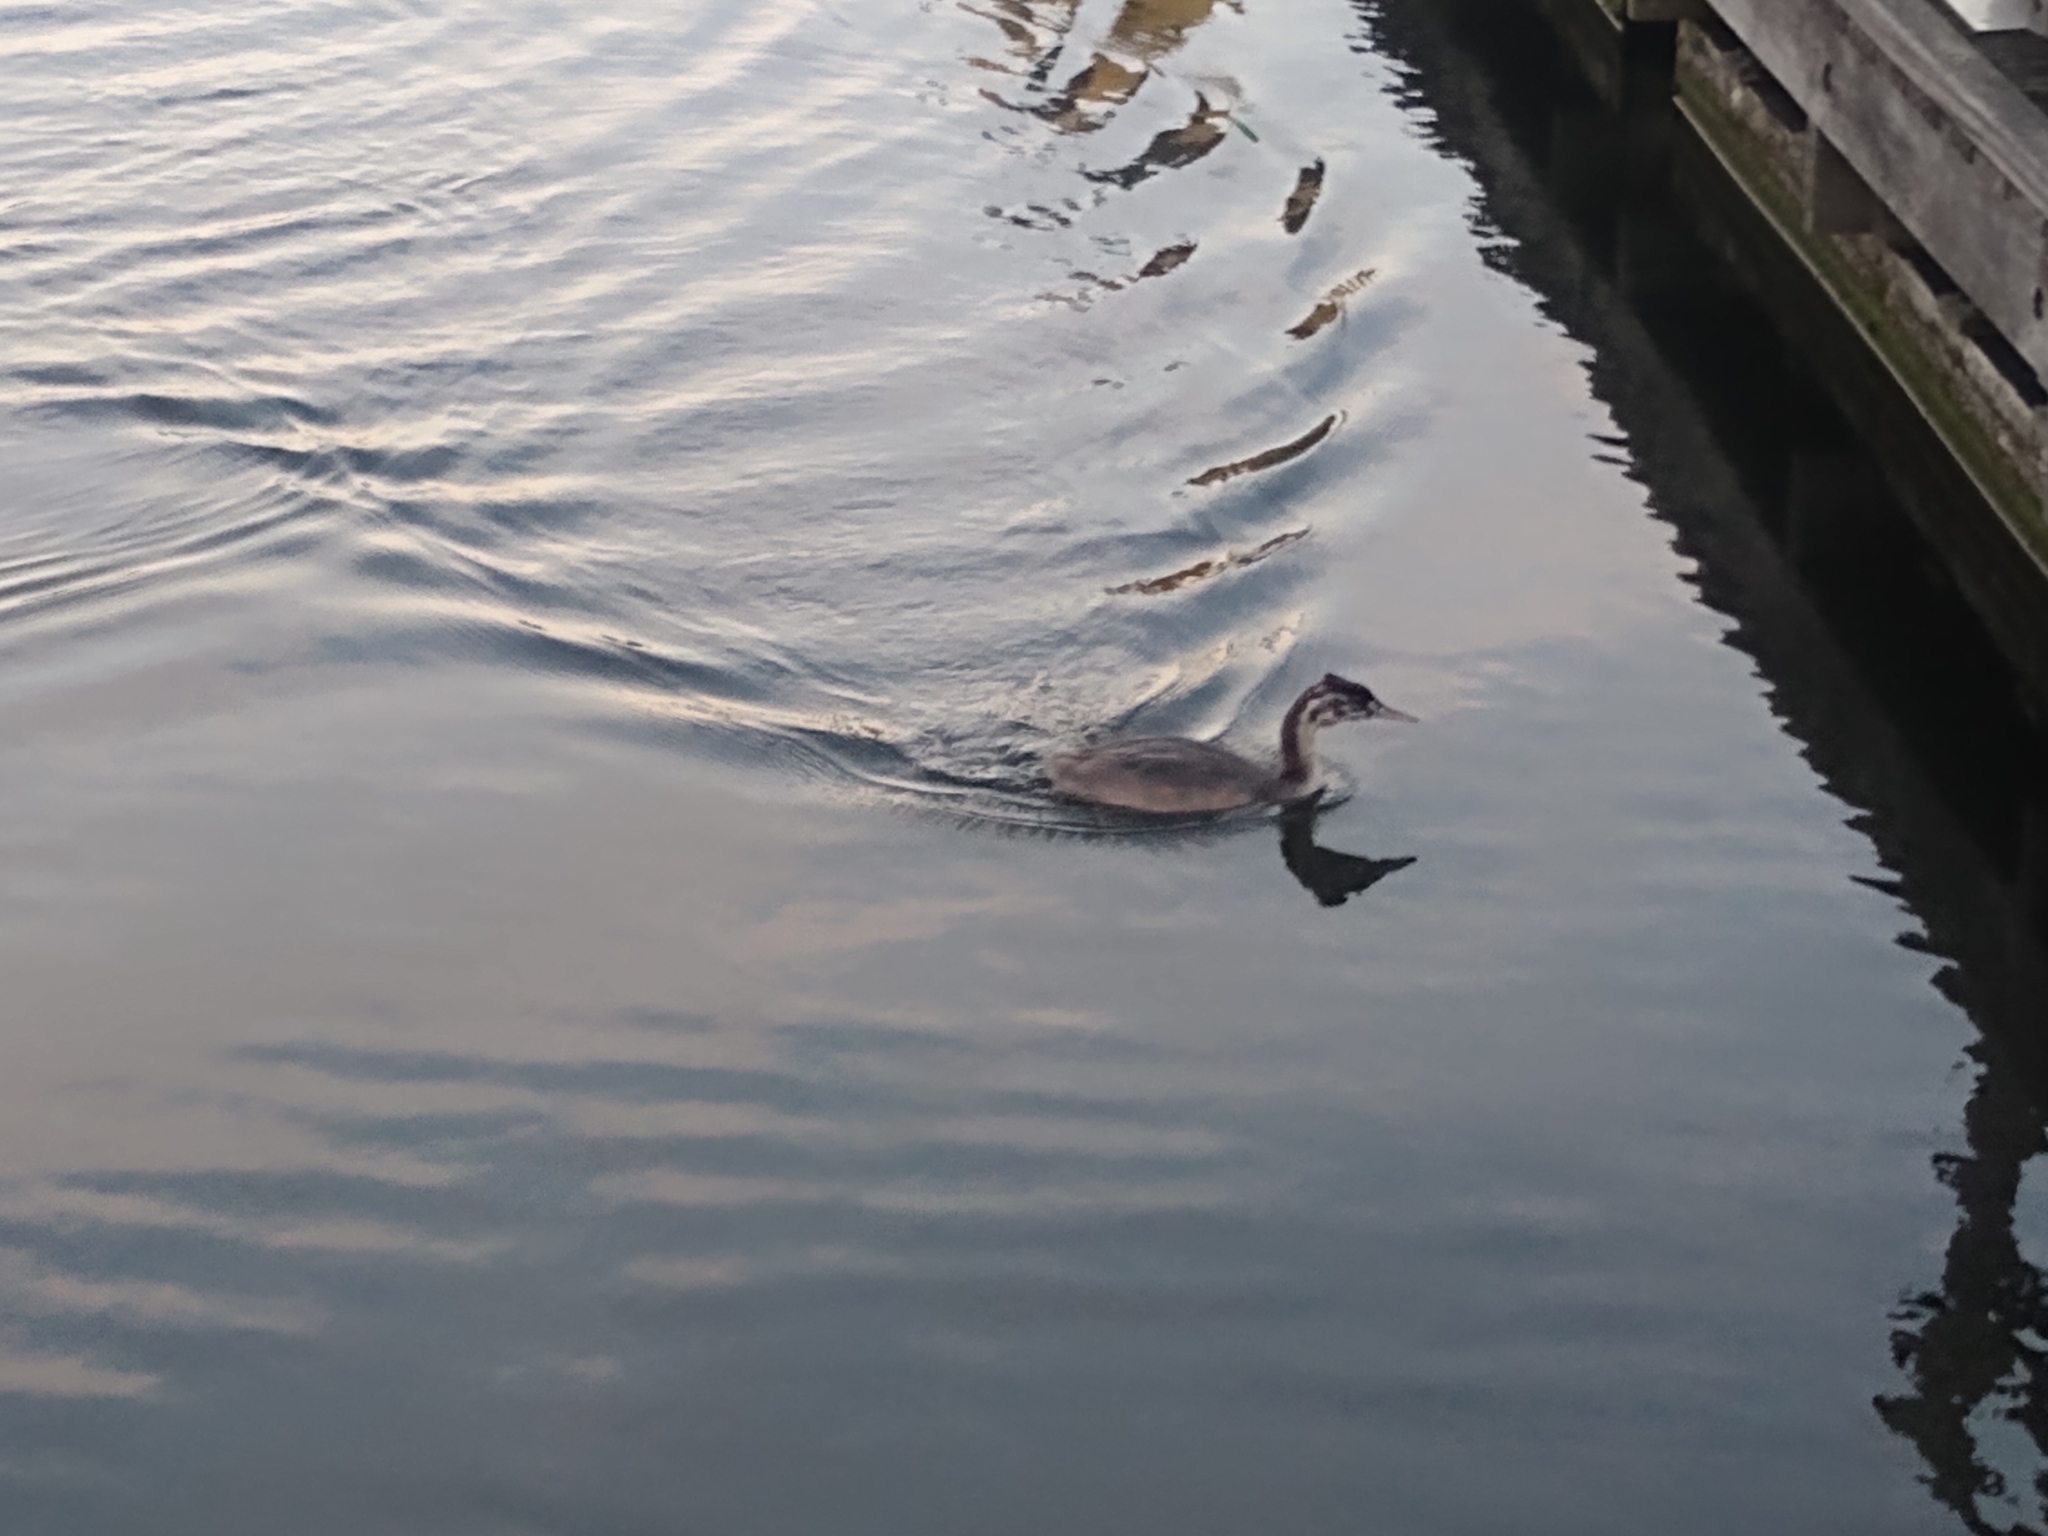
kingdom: Animalia
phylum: Chordata
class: Aves
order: Podicipediformes
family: Podicipedidae
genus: Podiceps
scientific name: Podiceps cristatus
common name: Great crested grebe
